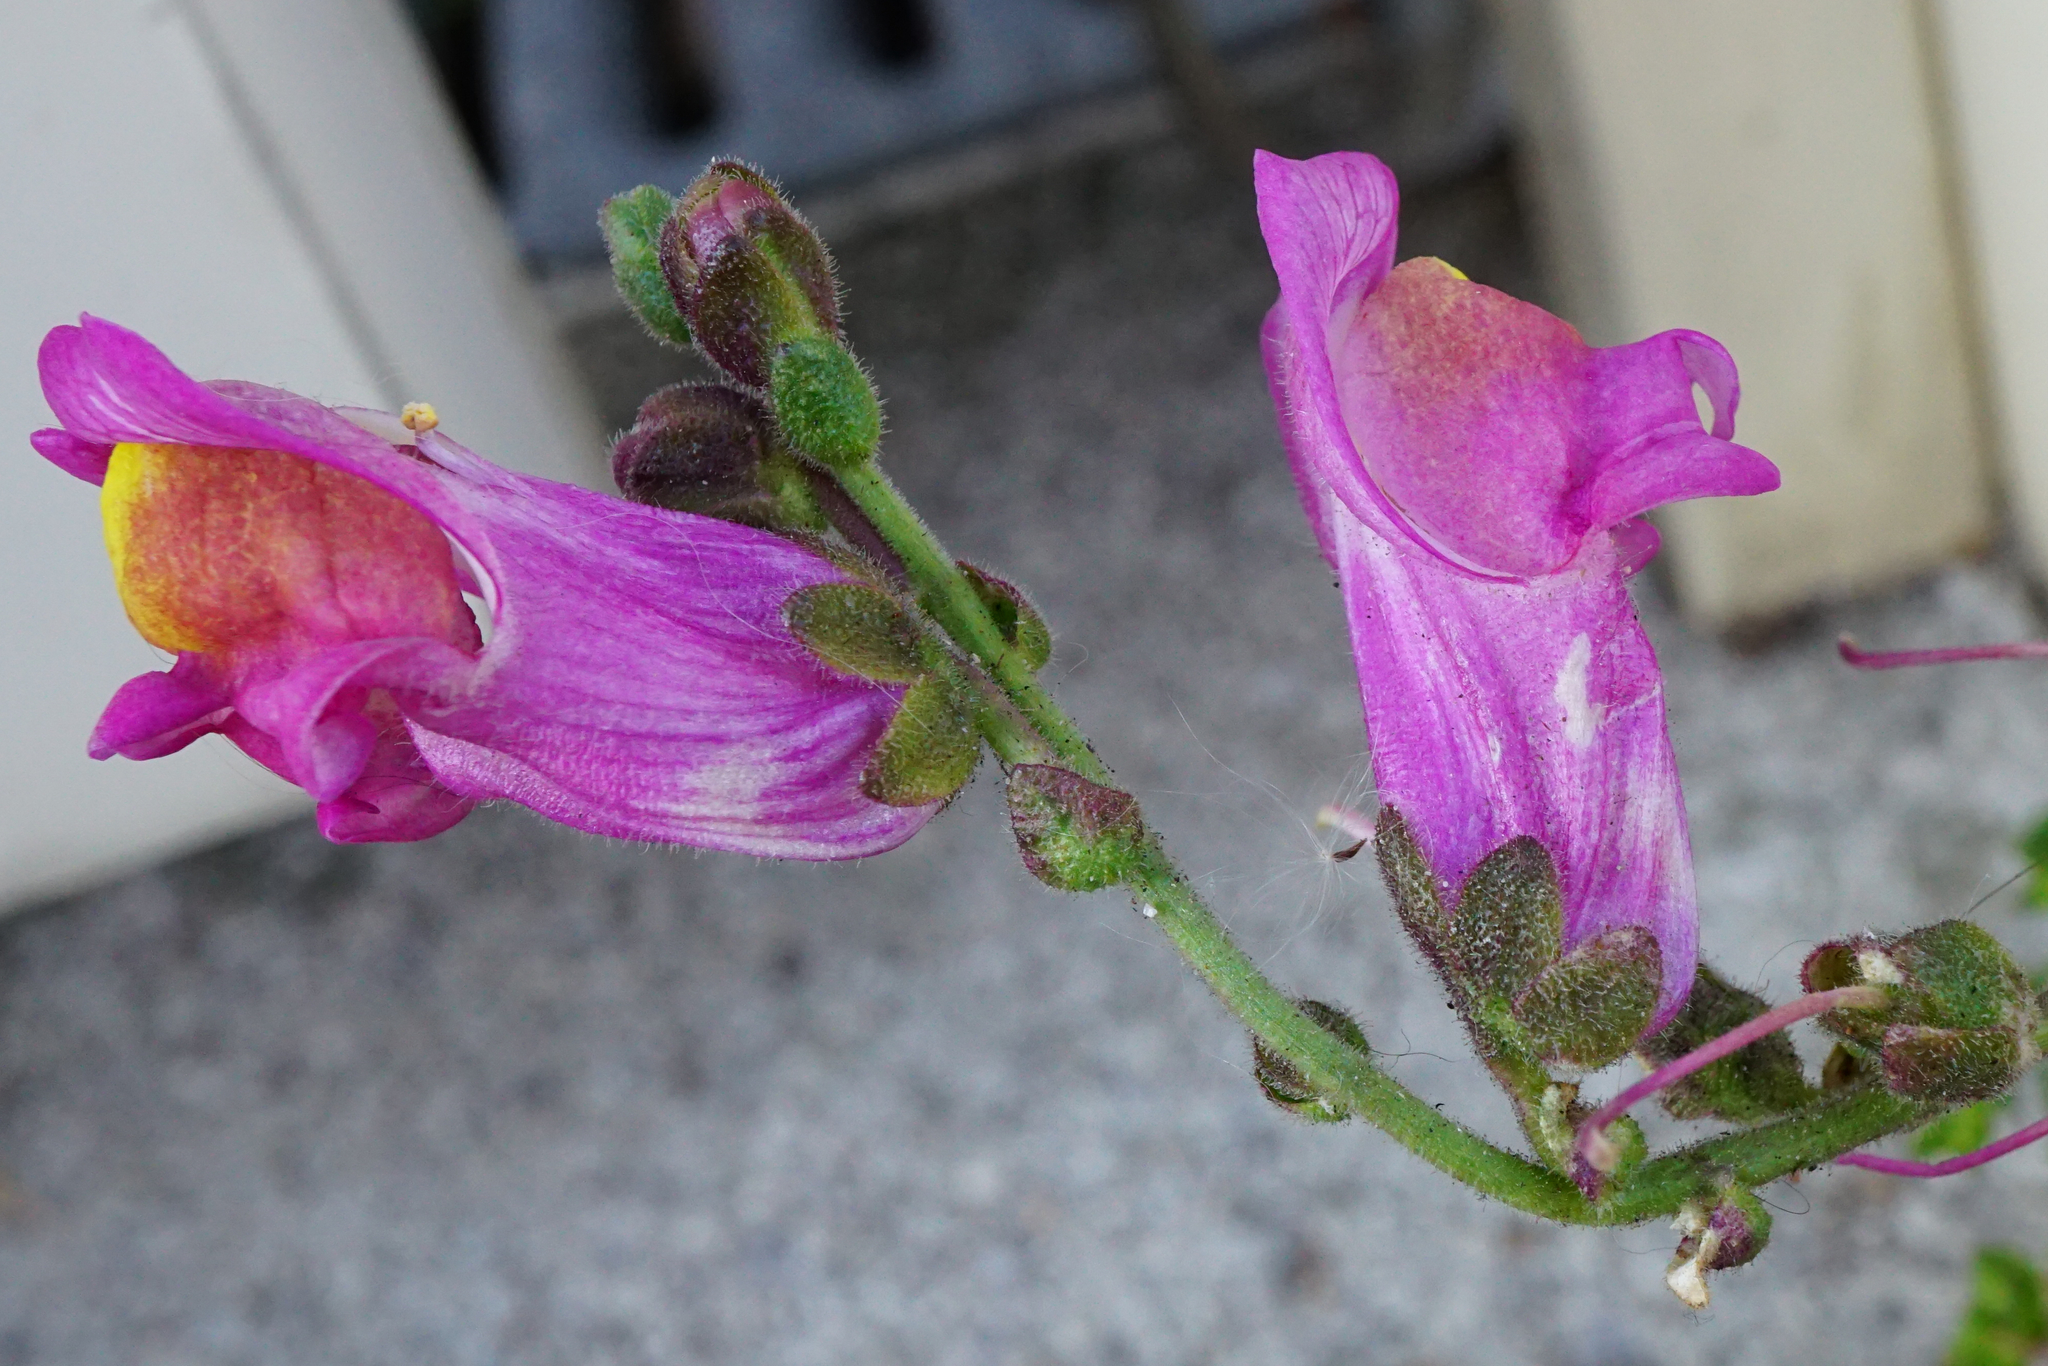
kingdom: Plantae
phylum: Tracheophyta
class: Magnoliopsida
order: Lamiales
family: Plantaginaceae
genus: Antirrhinum
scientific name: Antirrhinum majus
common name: Snapdragon
